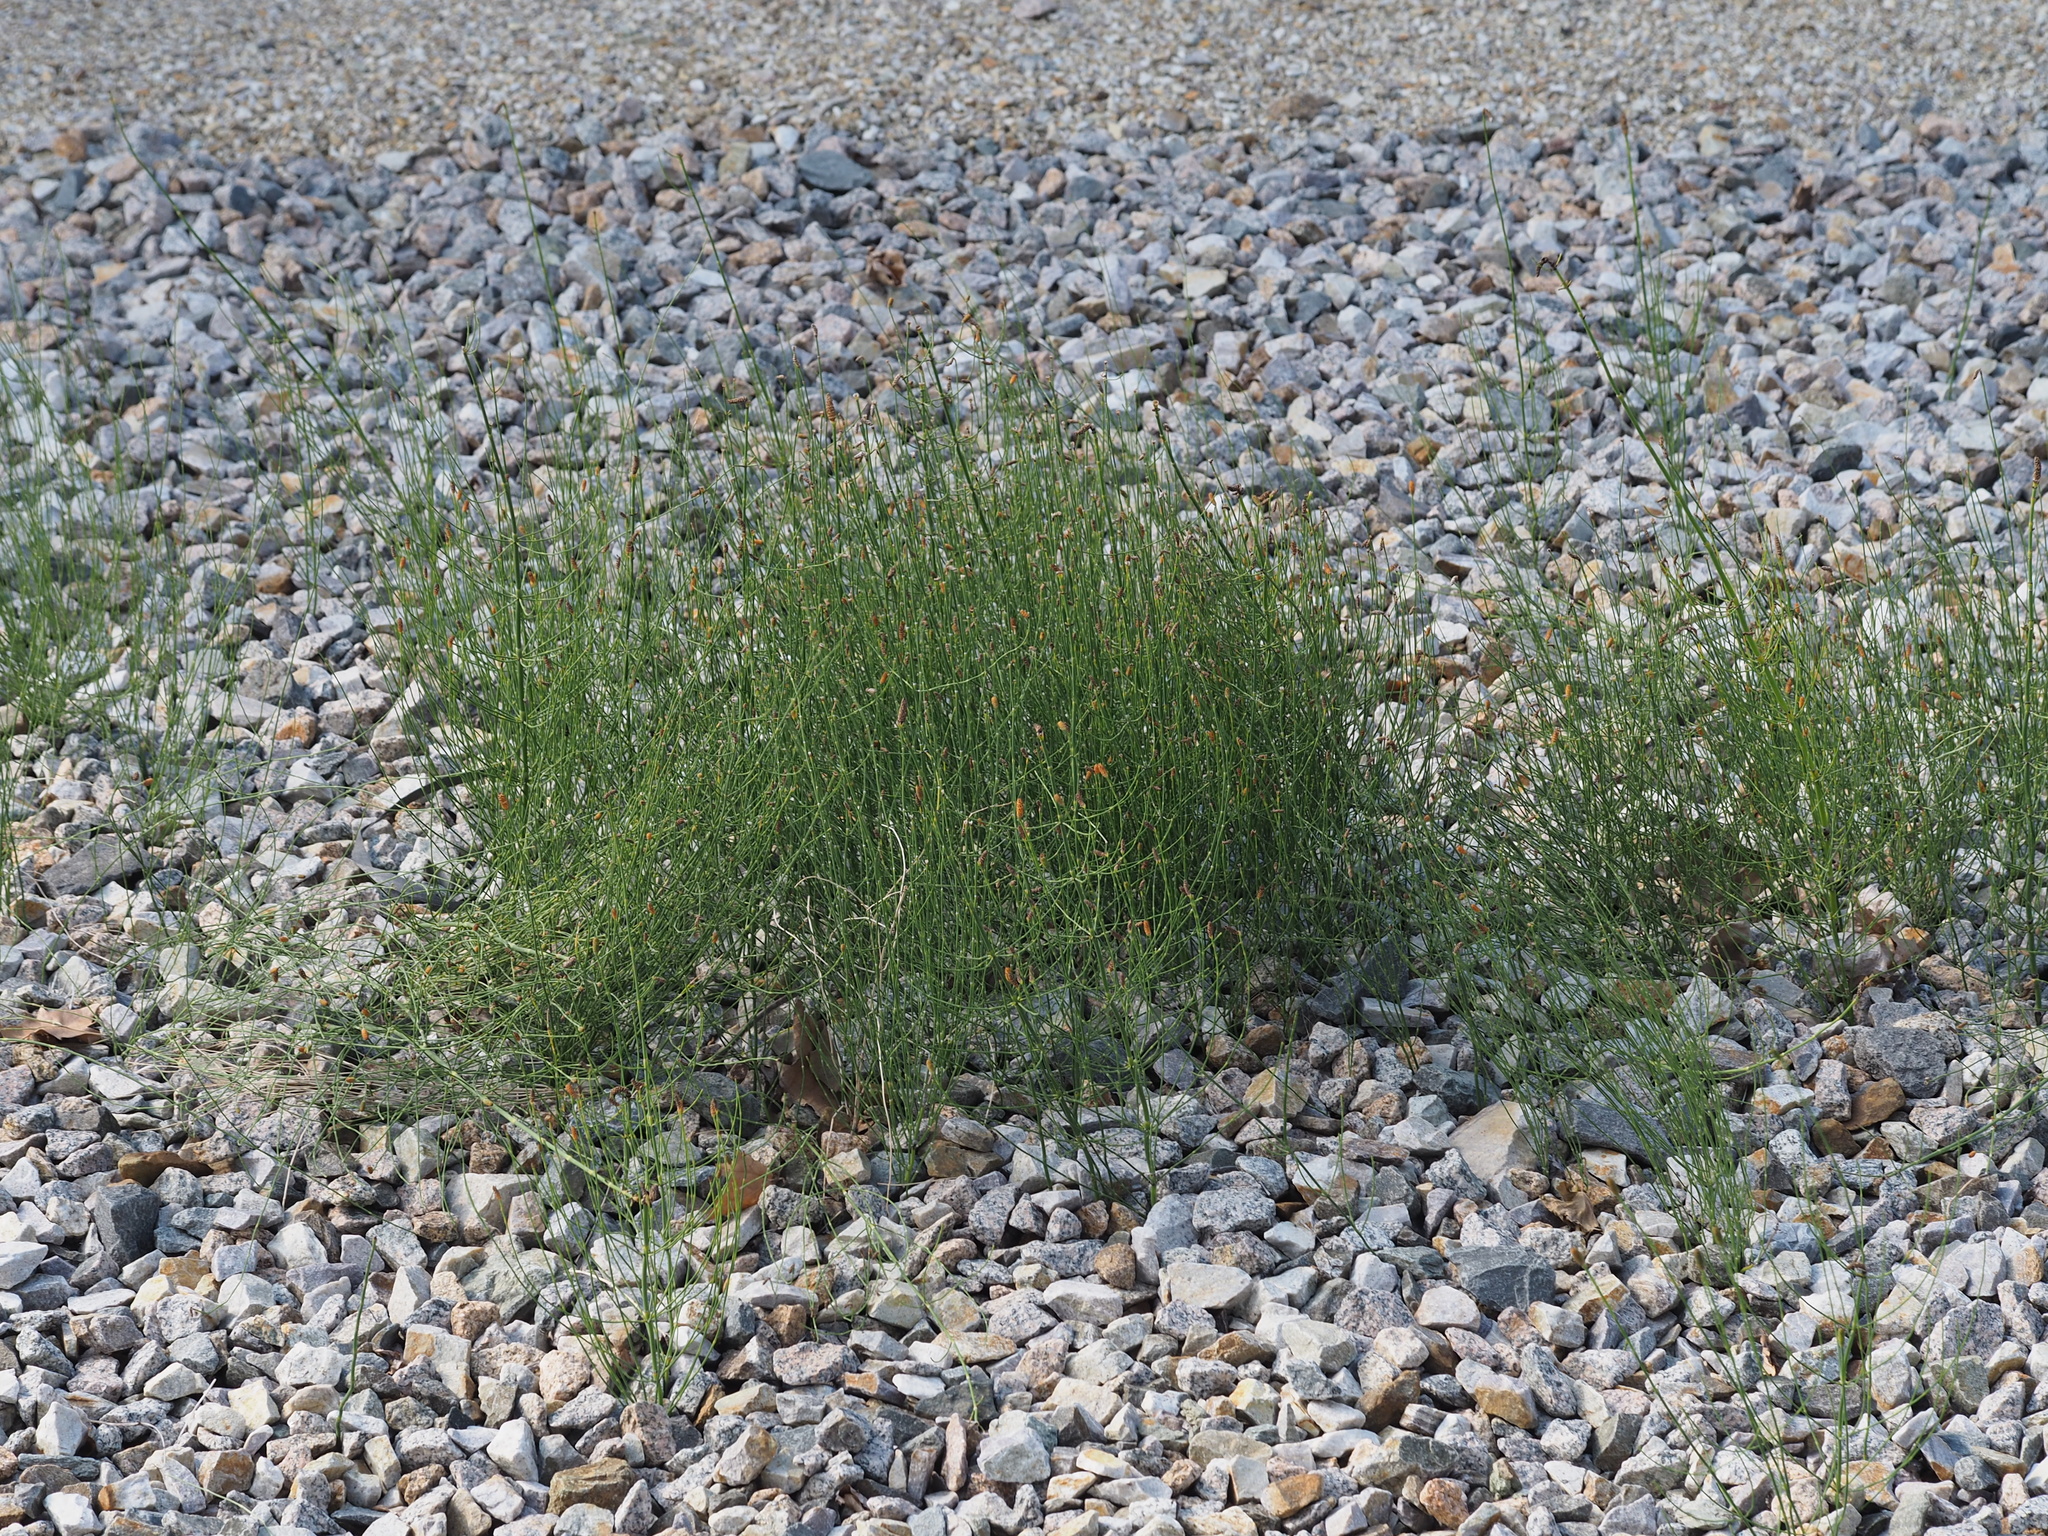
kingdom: Plantae
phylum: Tracheophyta
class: Polypodiopsida
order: Equisetales
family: Equisetaceae
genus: Equisetum
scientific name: Equisetum ramosissimum
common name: Branched horsetail
